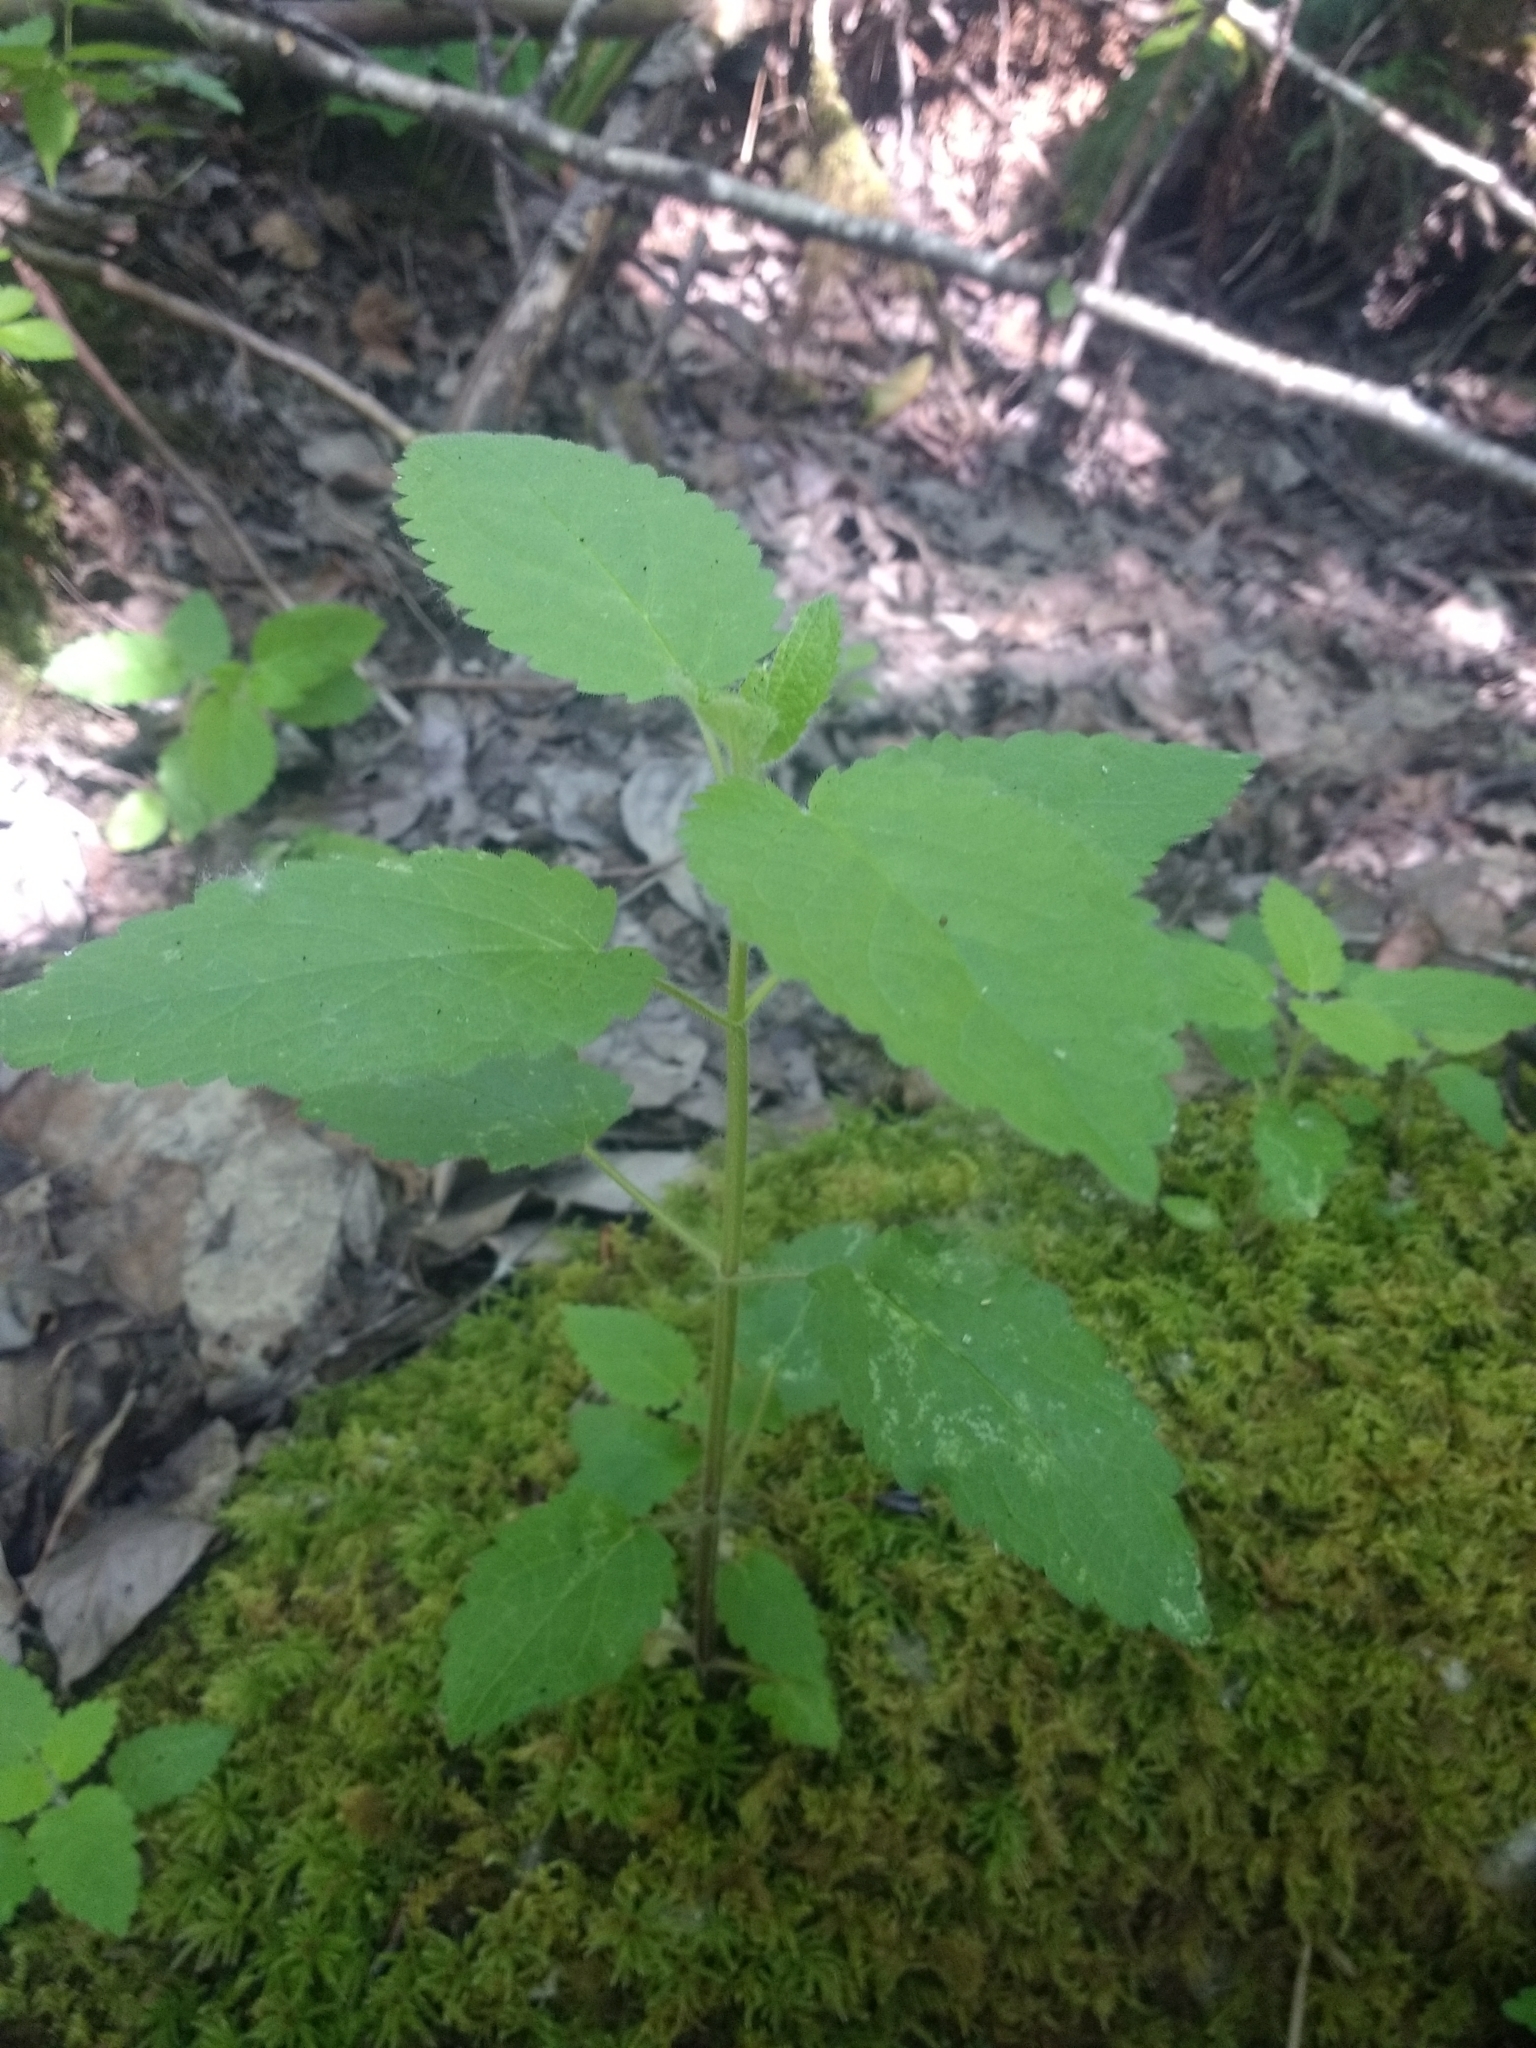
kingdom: Plantae
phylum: Tracheophyta
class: Magnoliopsida
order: Lamiales
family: Lamiaceae
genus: Stachys
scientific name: Stachys chamissonis
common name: Coastal hedge-nettle
